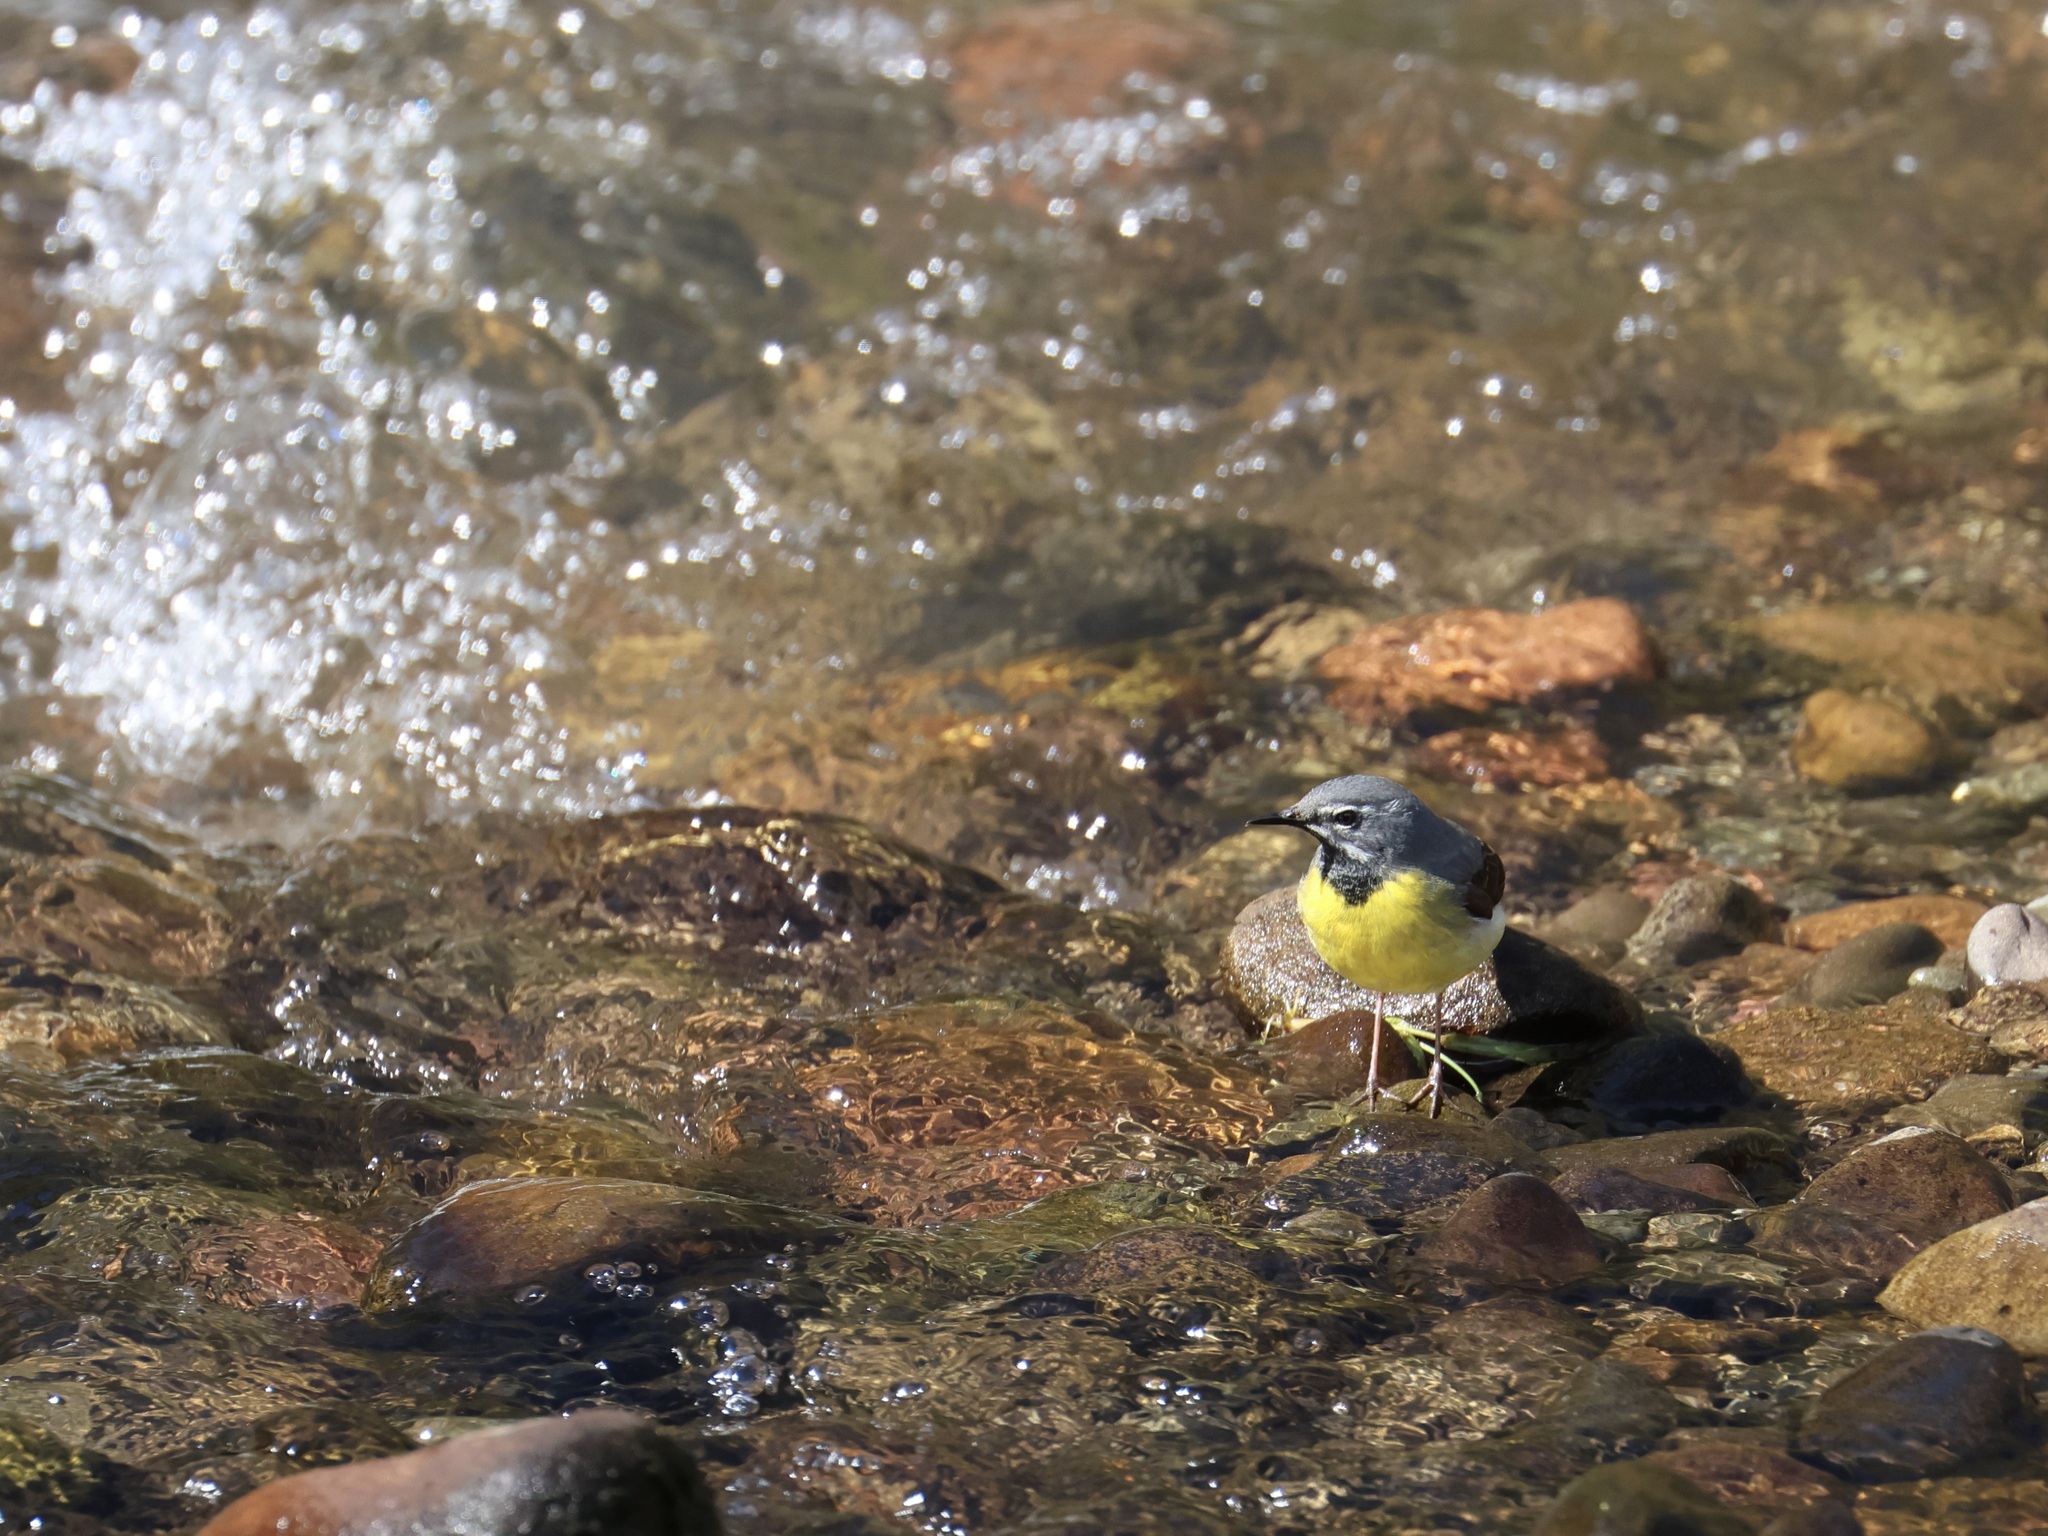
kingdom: Animalia
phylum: Chordata
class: Aves
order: Passeriformes
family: Motacillidae
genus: Motacilla
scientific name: Motacilla cinerea
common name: Grey wagtail
